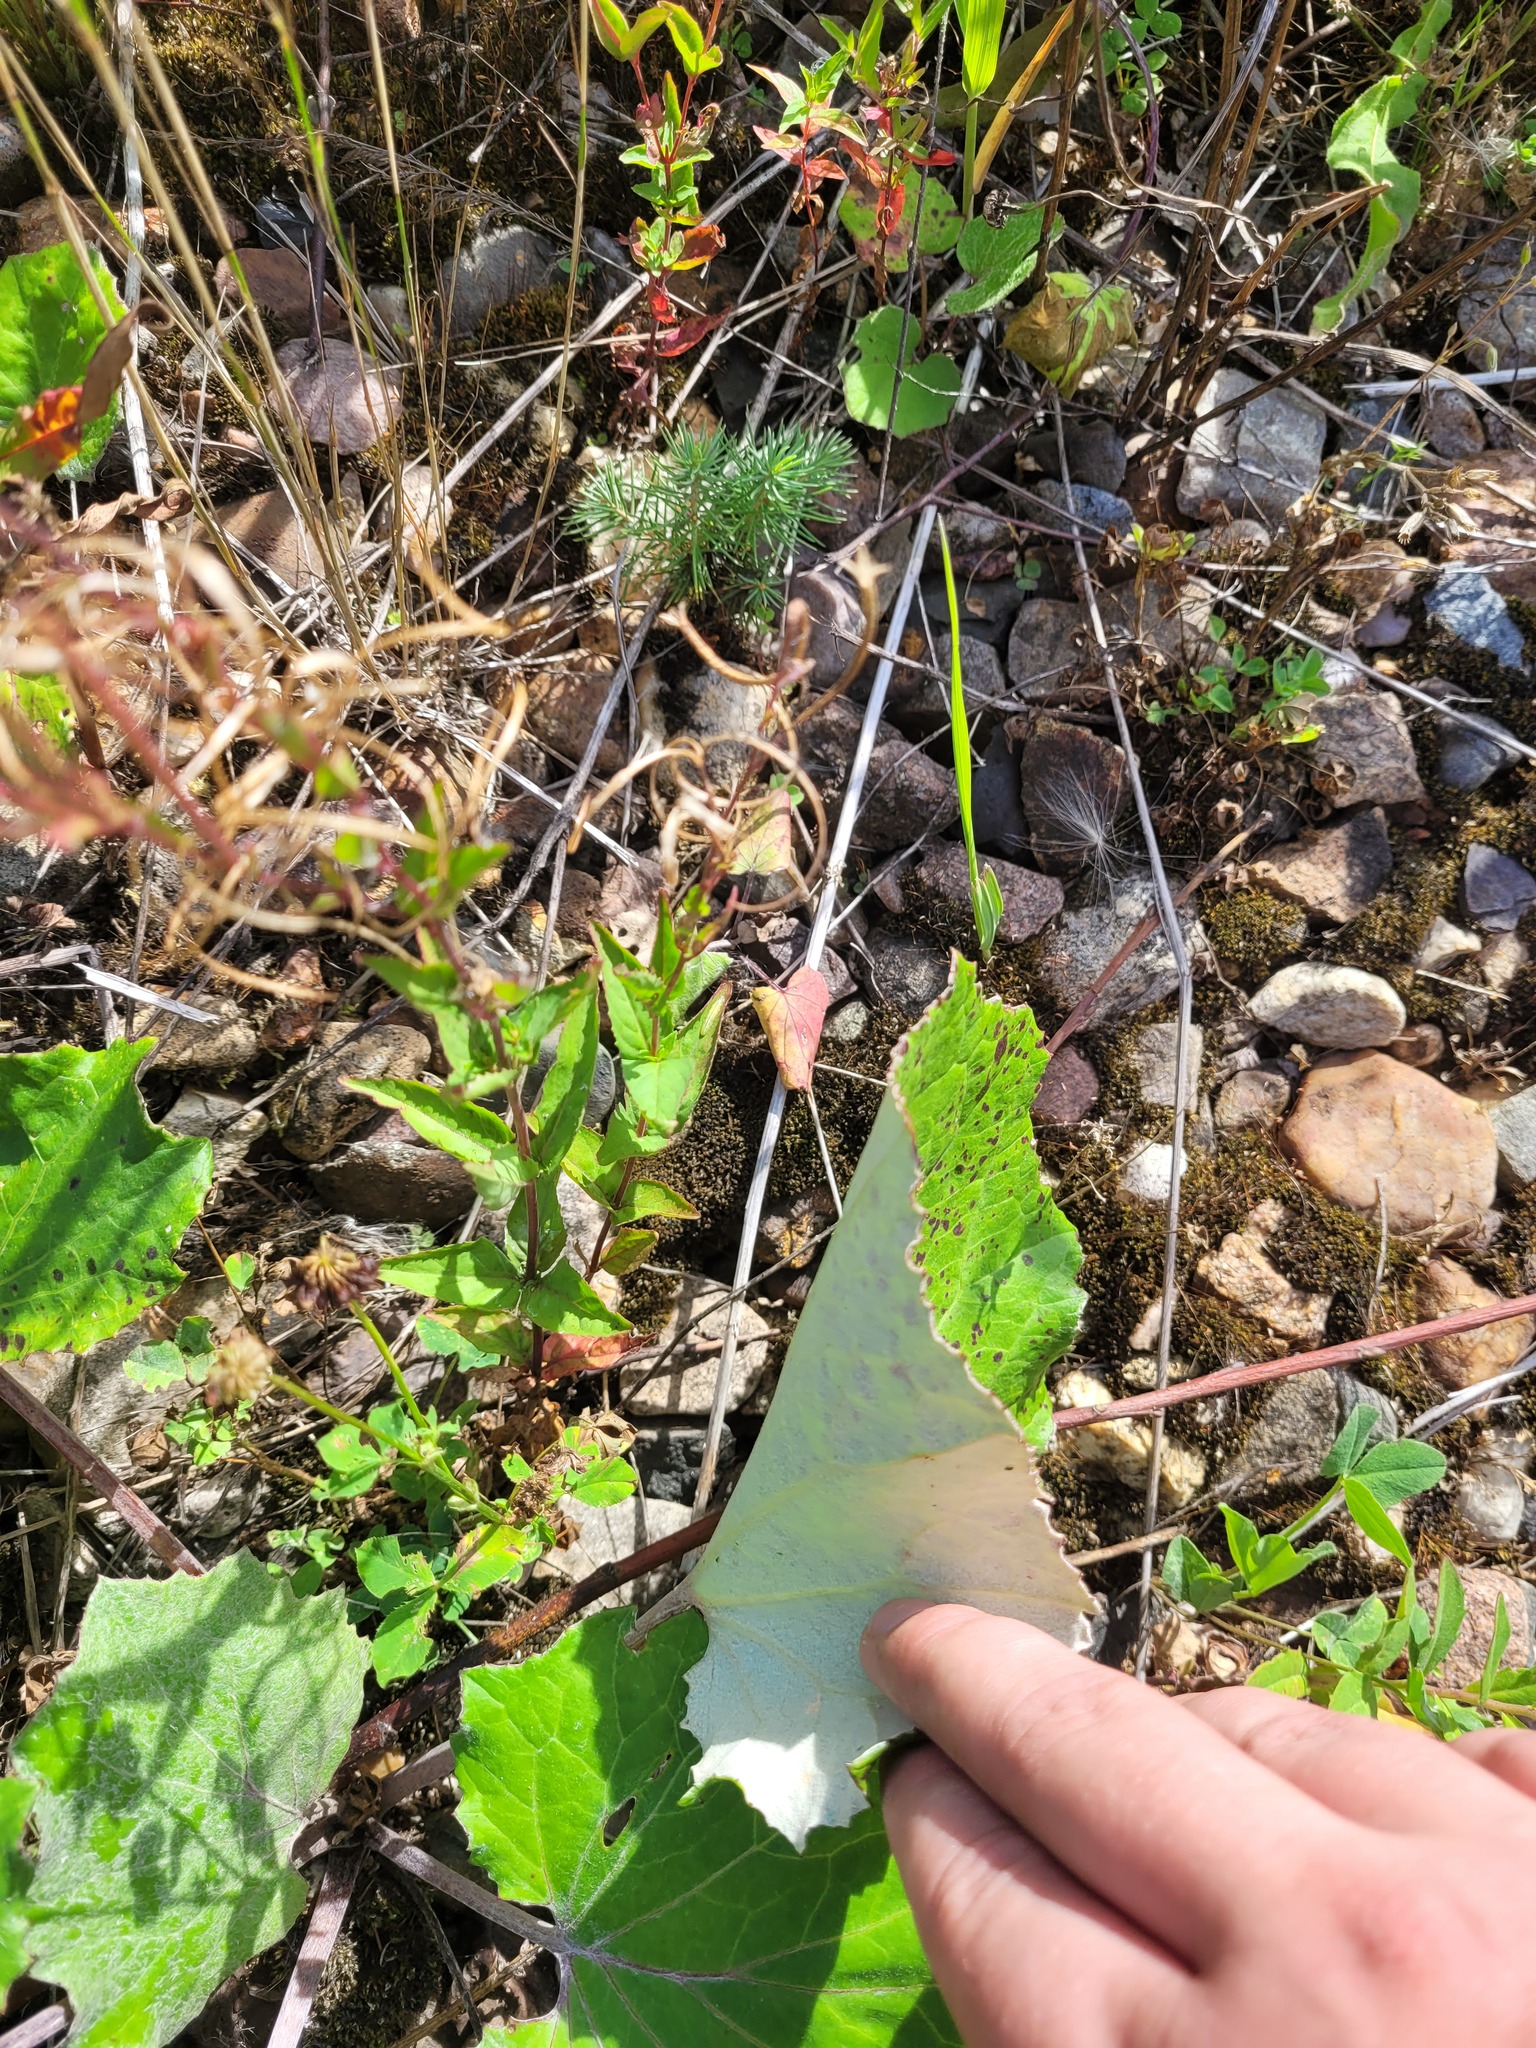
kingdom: Plantae
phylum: Tracheophyta
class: Magnoliopsida
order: Myrtales
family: Onagraceae
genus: Epilobium
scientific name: Epilobium montanum
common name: Broad-leaved willowherb
